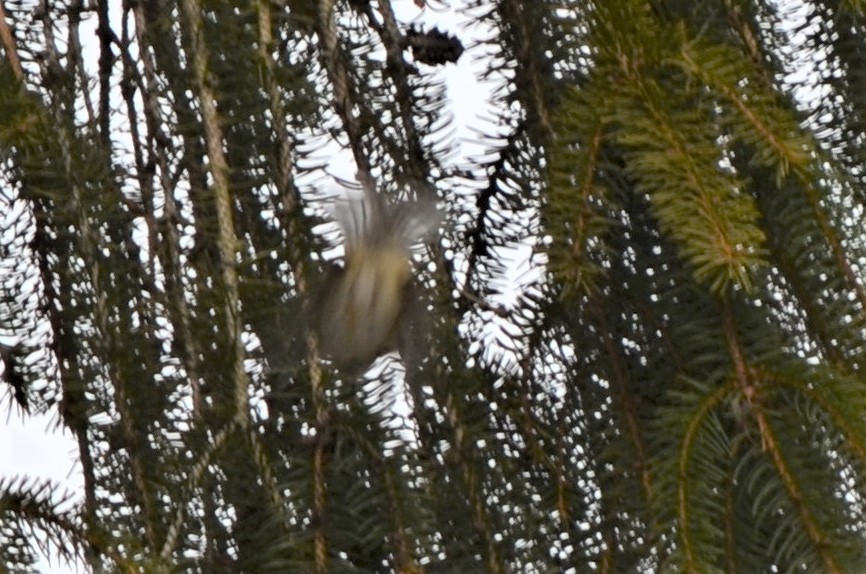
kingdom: Animalia
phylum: Chordata
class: Aves
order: Passeriformes
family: Regulidae
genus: Regulus
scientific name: Regulus regulus
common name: Goldcrest
